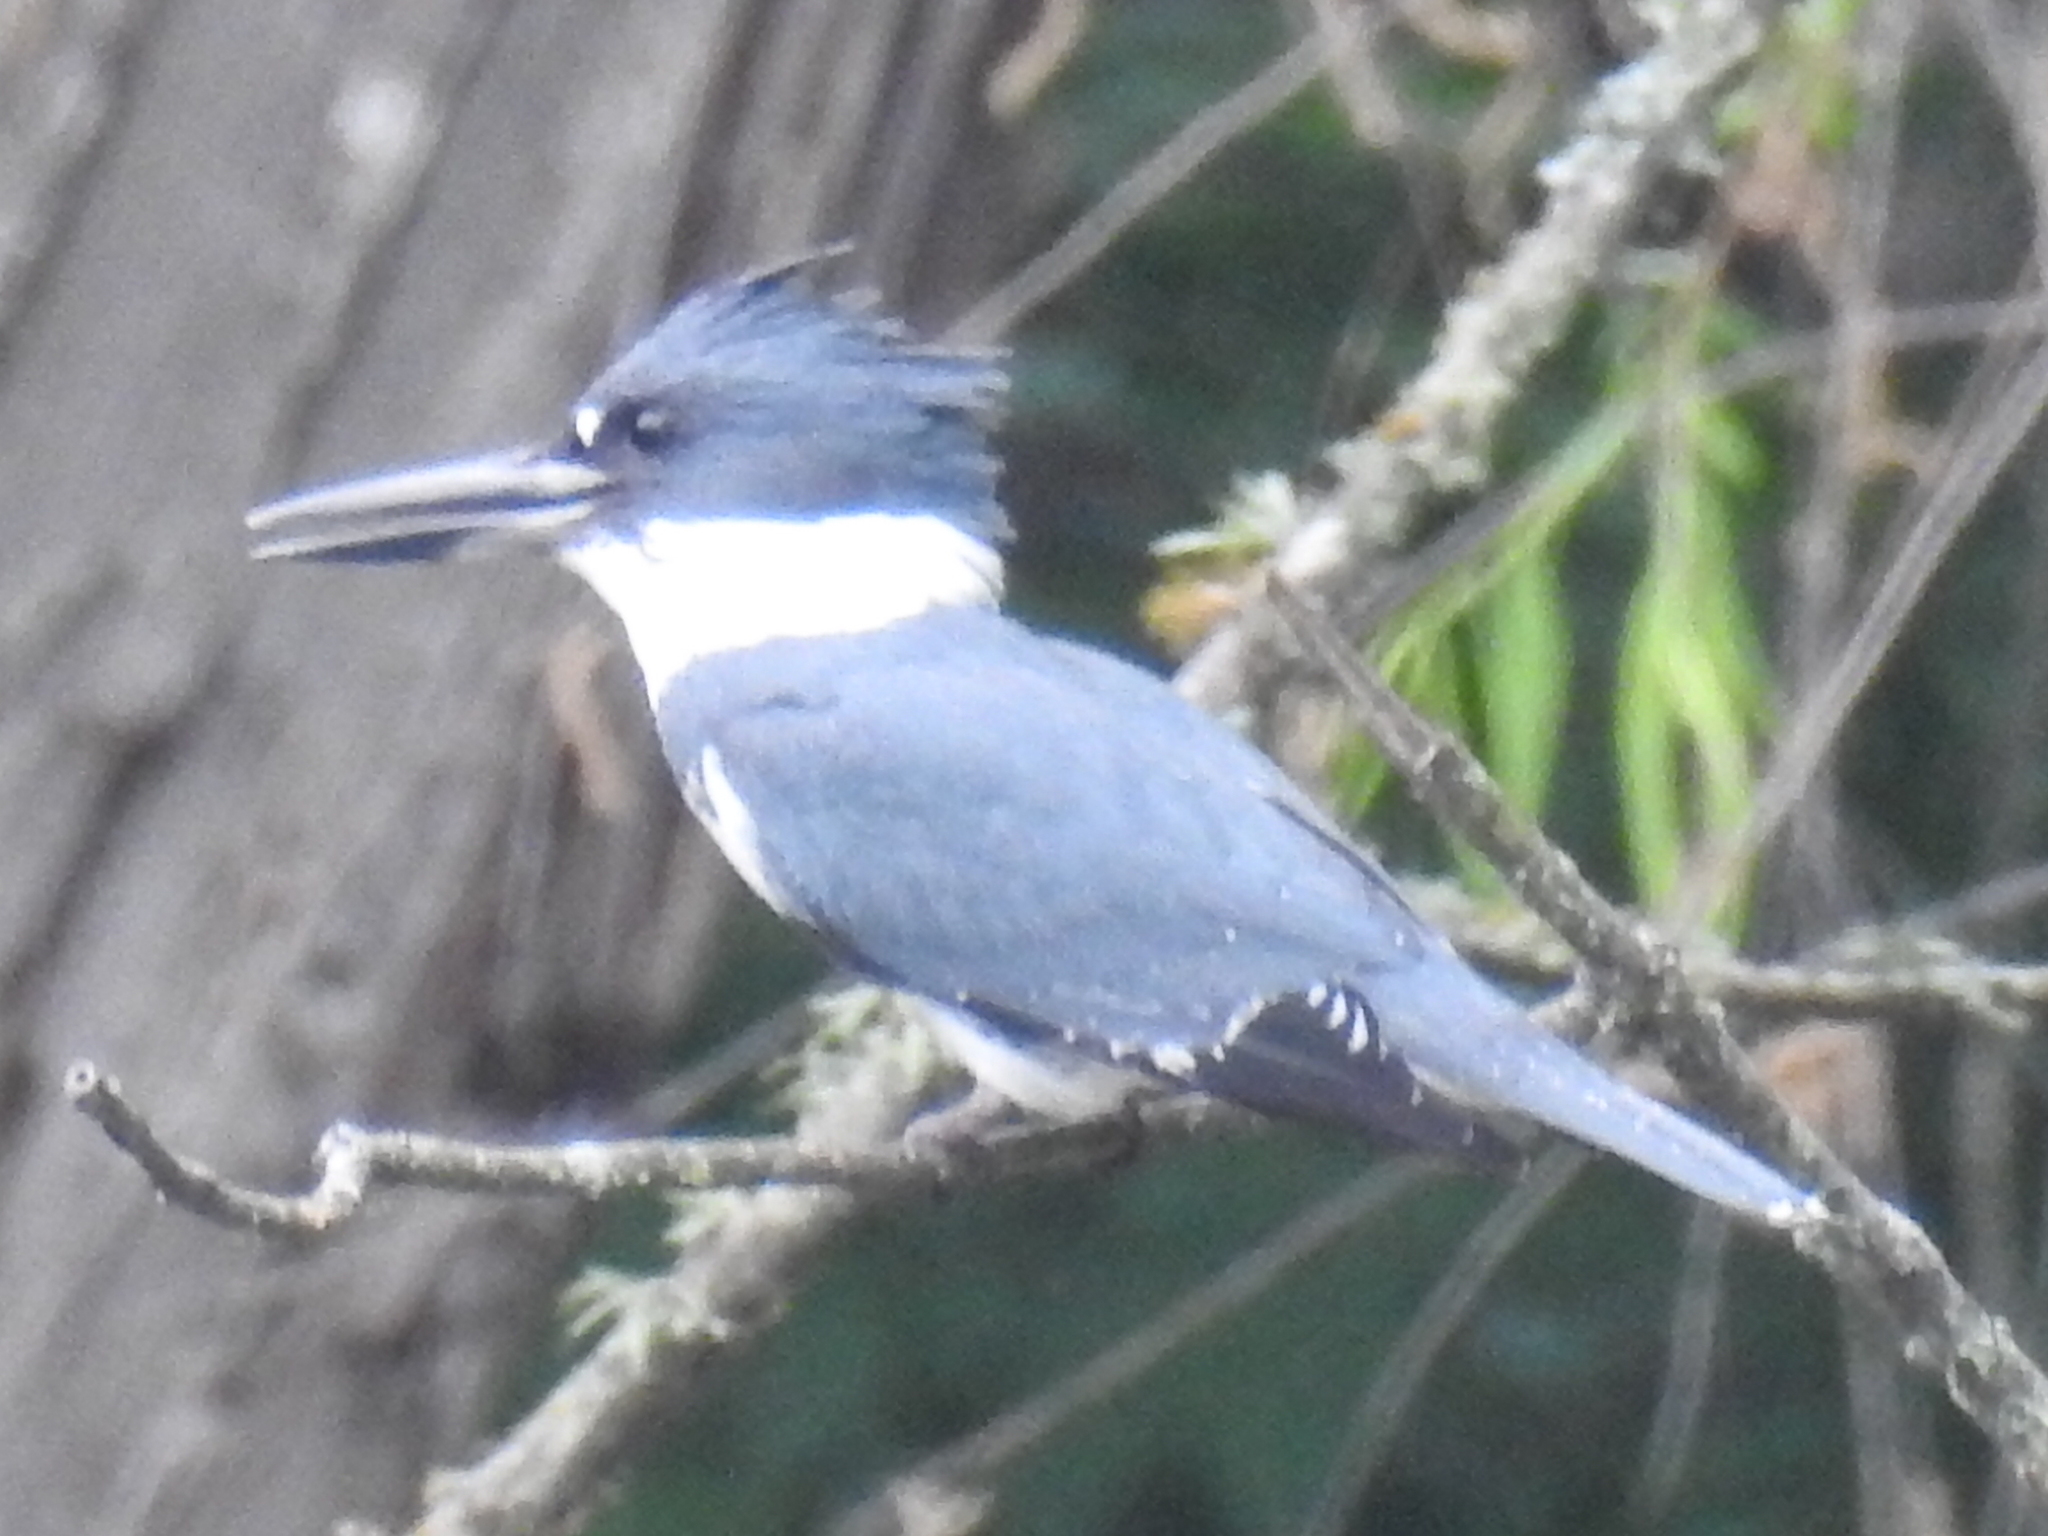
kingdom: Animalia
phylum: Chordata
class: Aves
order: Coraciiformes
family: Alcedinidae
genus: Megaceryle
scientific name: Megaceryle alcyon
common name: Belted kingfisher
